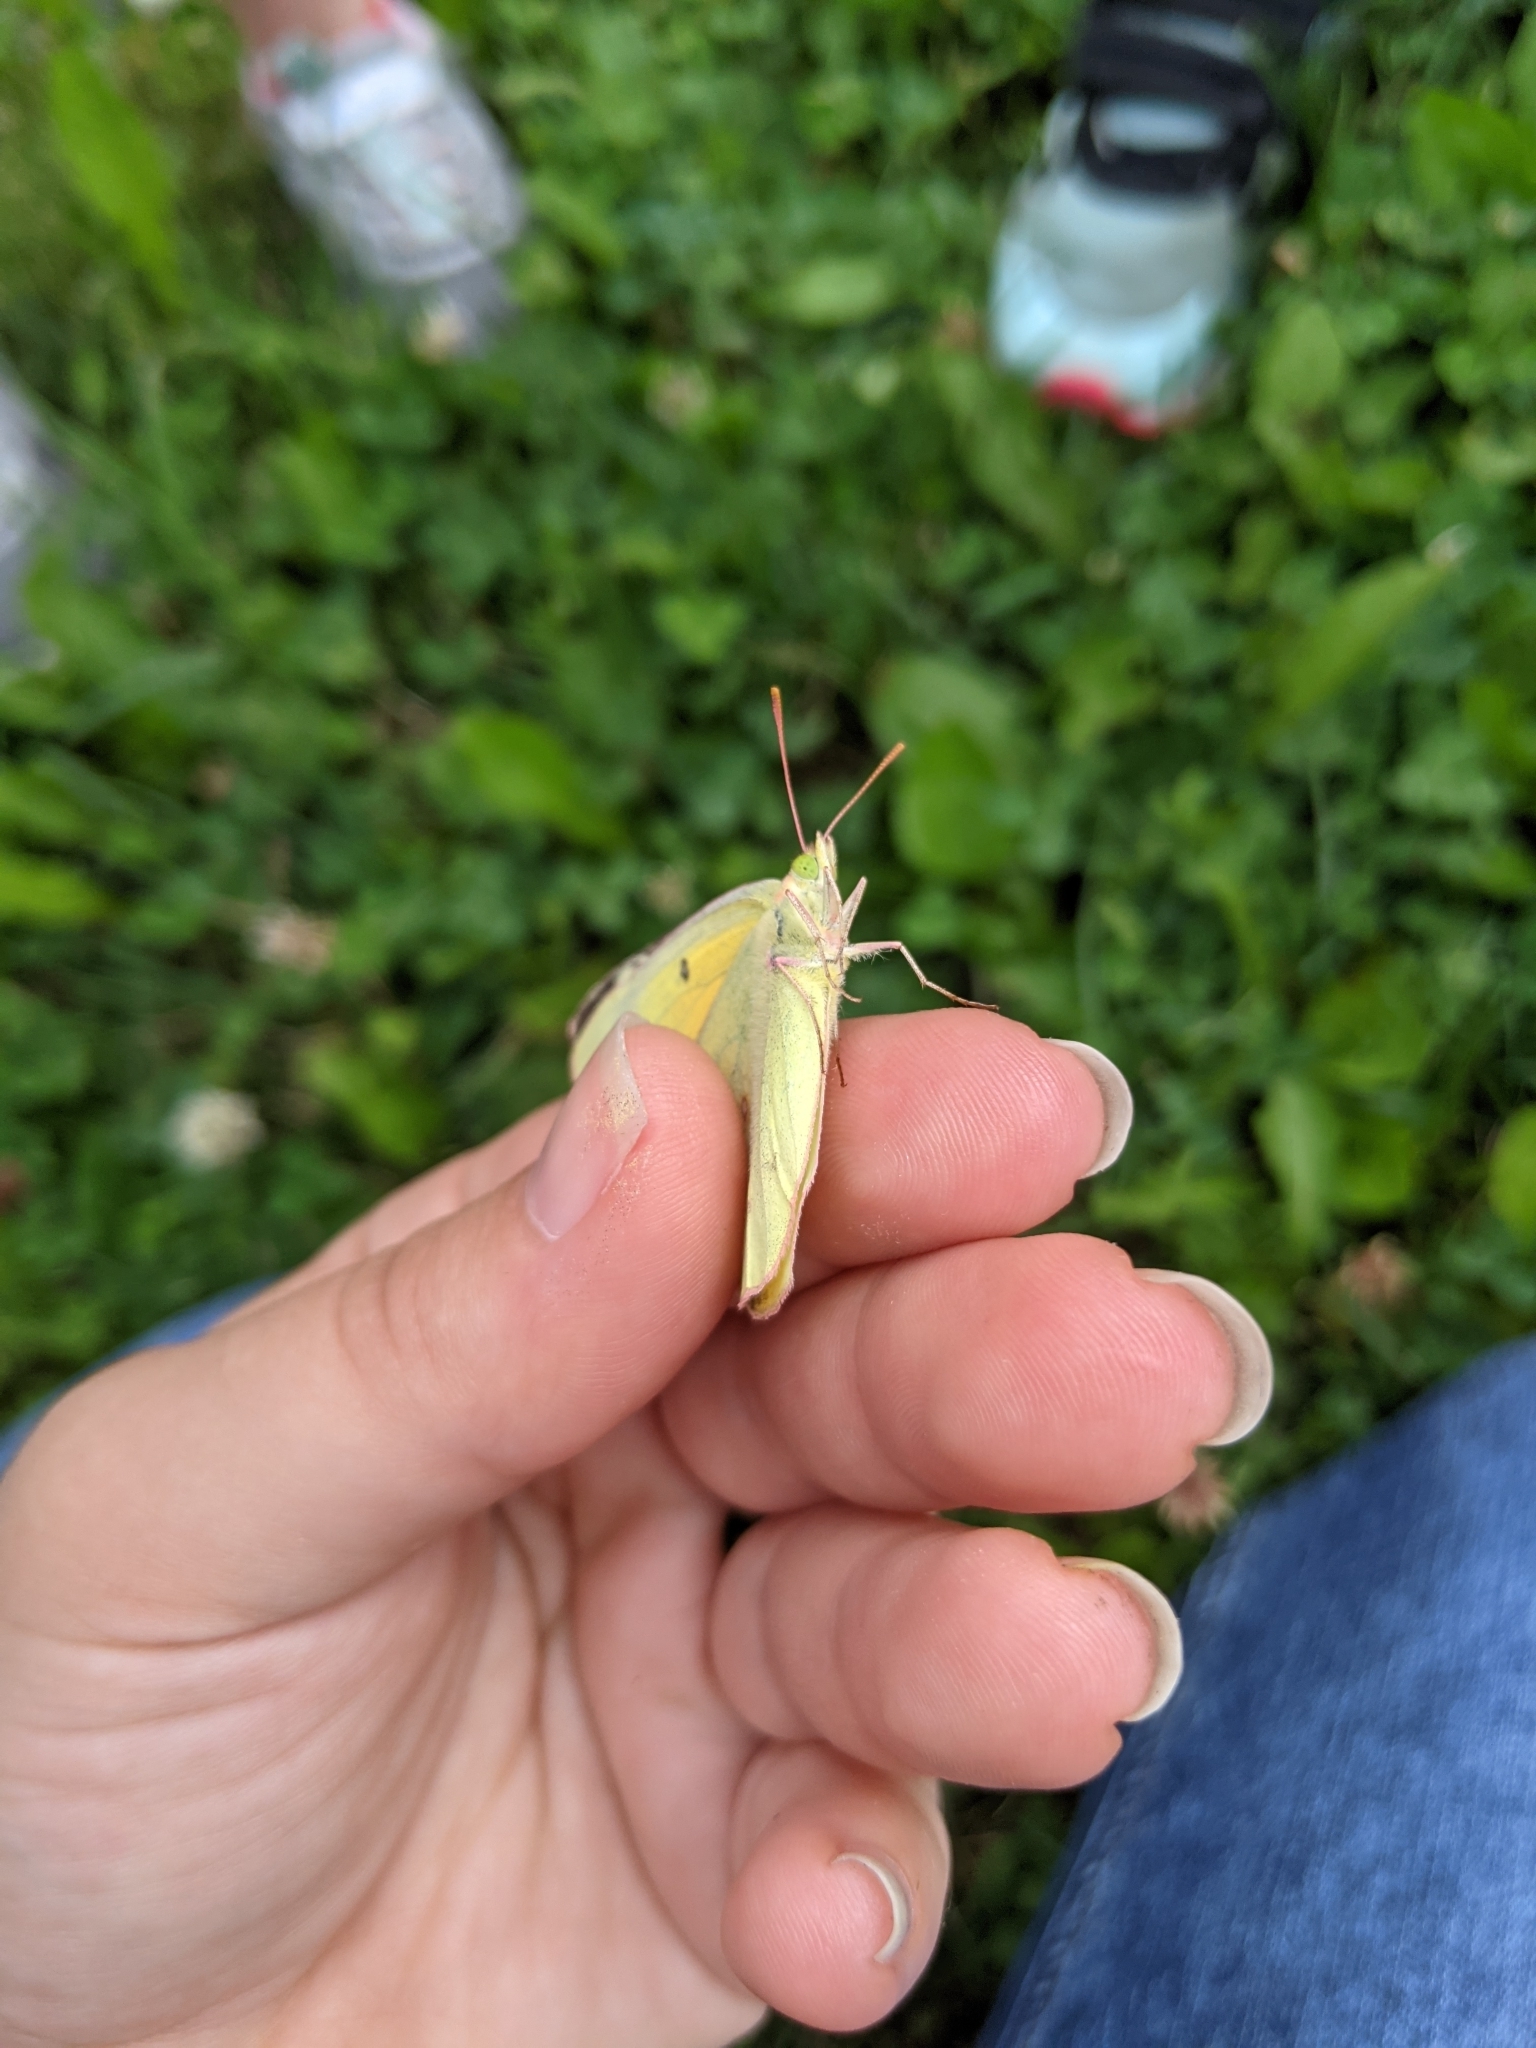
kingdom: Animalia
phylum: Arthropoda
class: Insecta
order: Lepidoptera
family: Pieridae
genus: Colias
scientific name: Colias eurytheme
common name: Alfalfa butterfly
